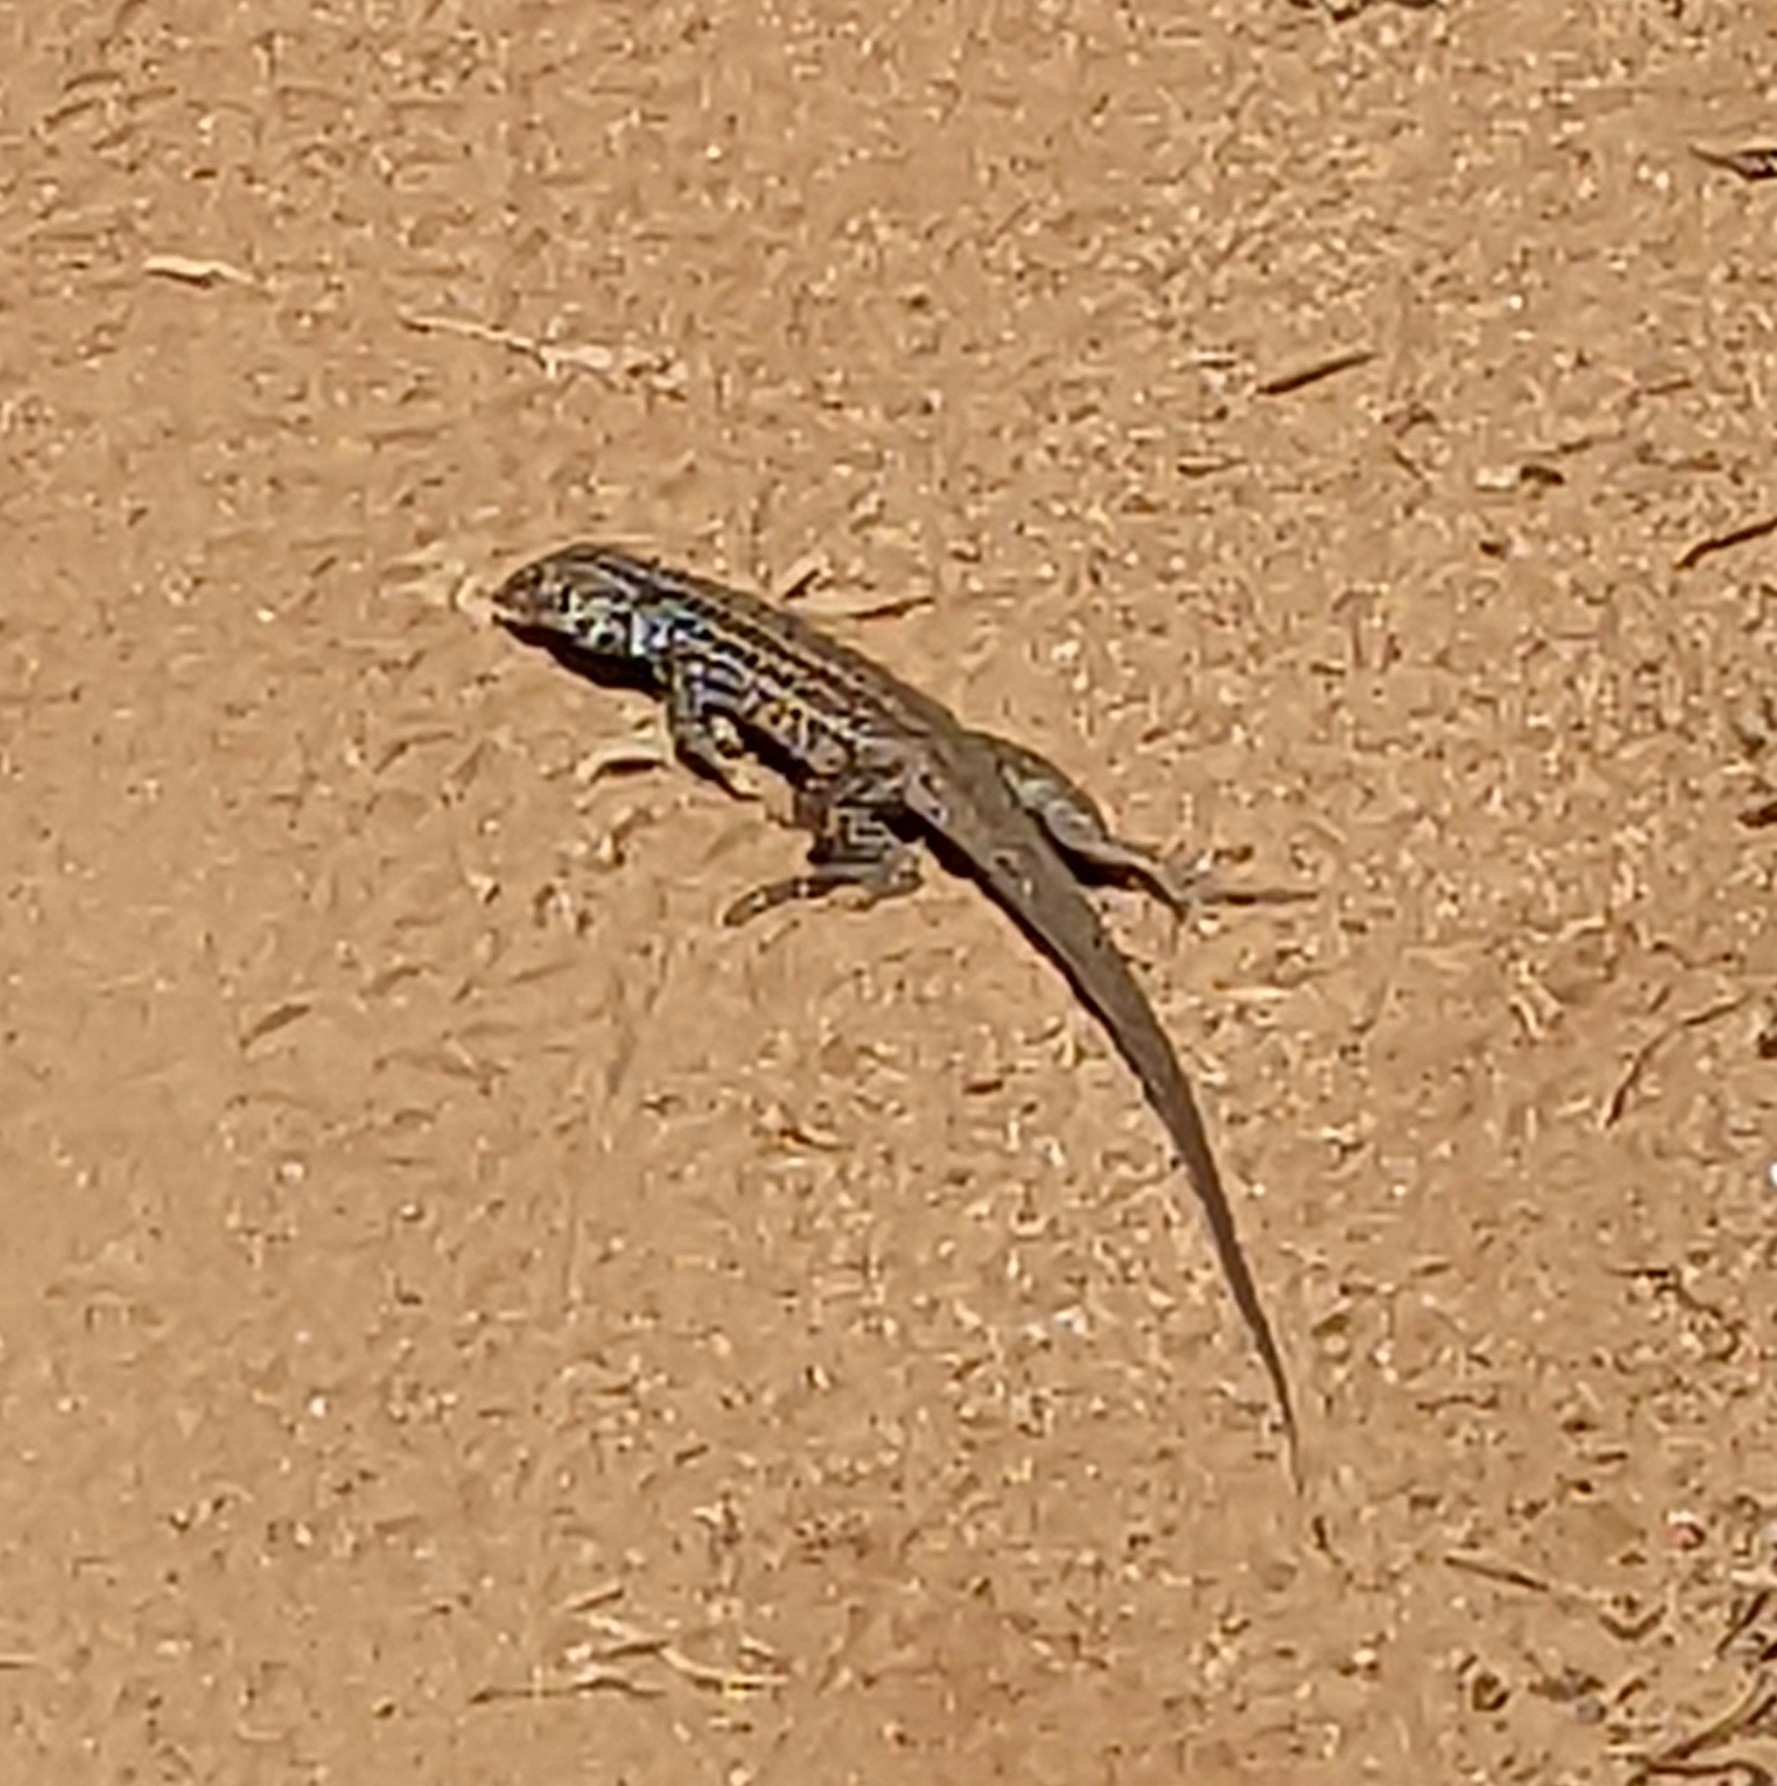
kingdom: Animalia
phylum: Chordata
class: Squamata
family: Teiidae
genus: Aspidoscelis
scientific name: Aspidoscelis tigris
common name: Tiger whiptail
